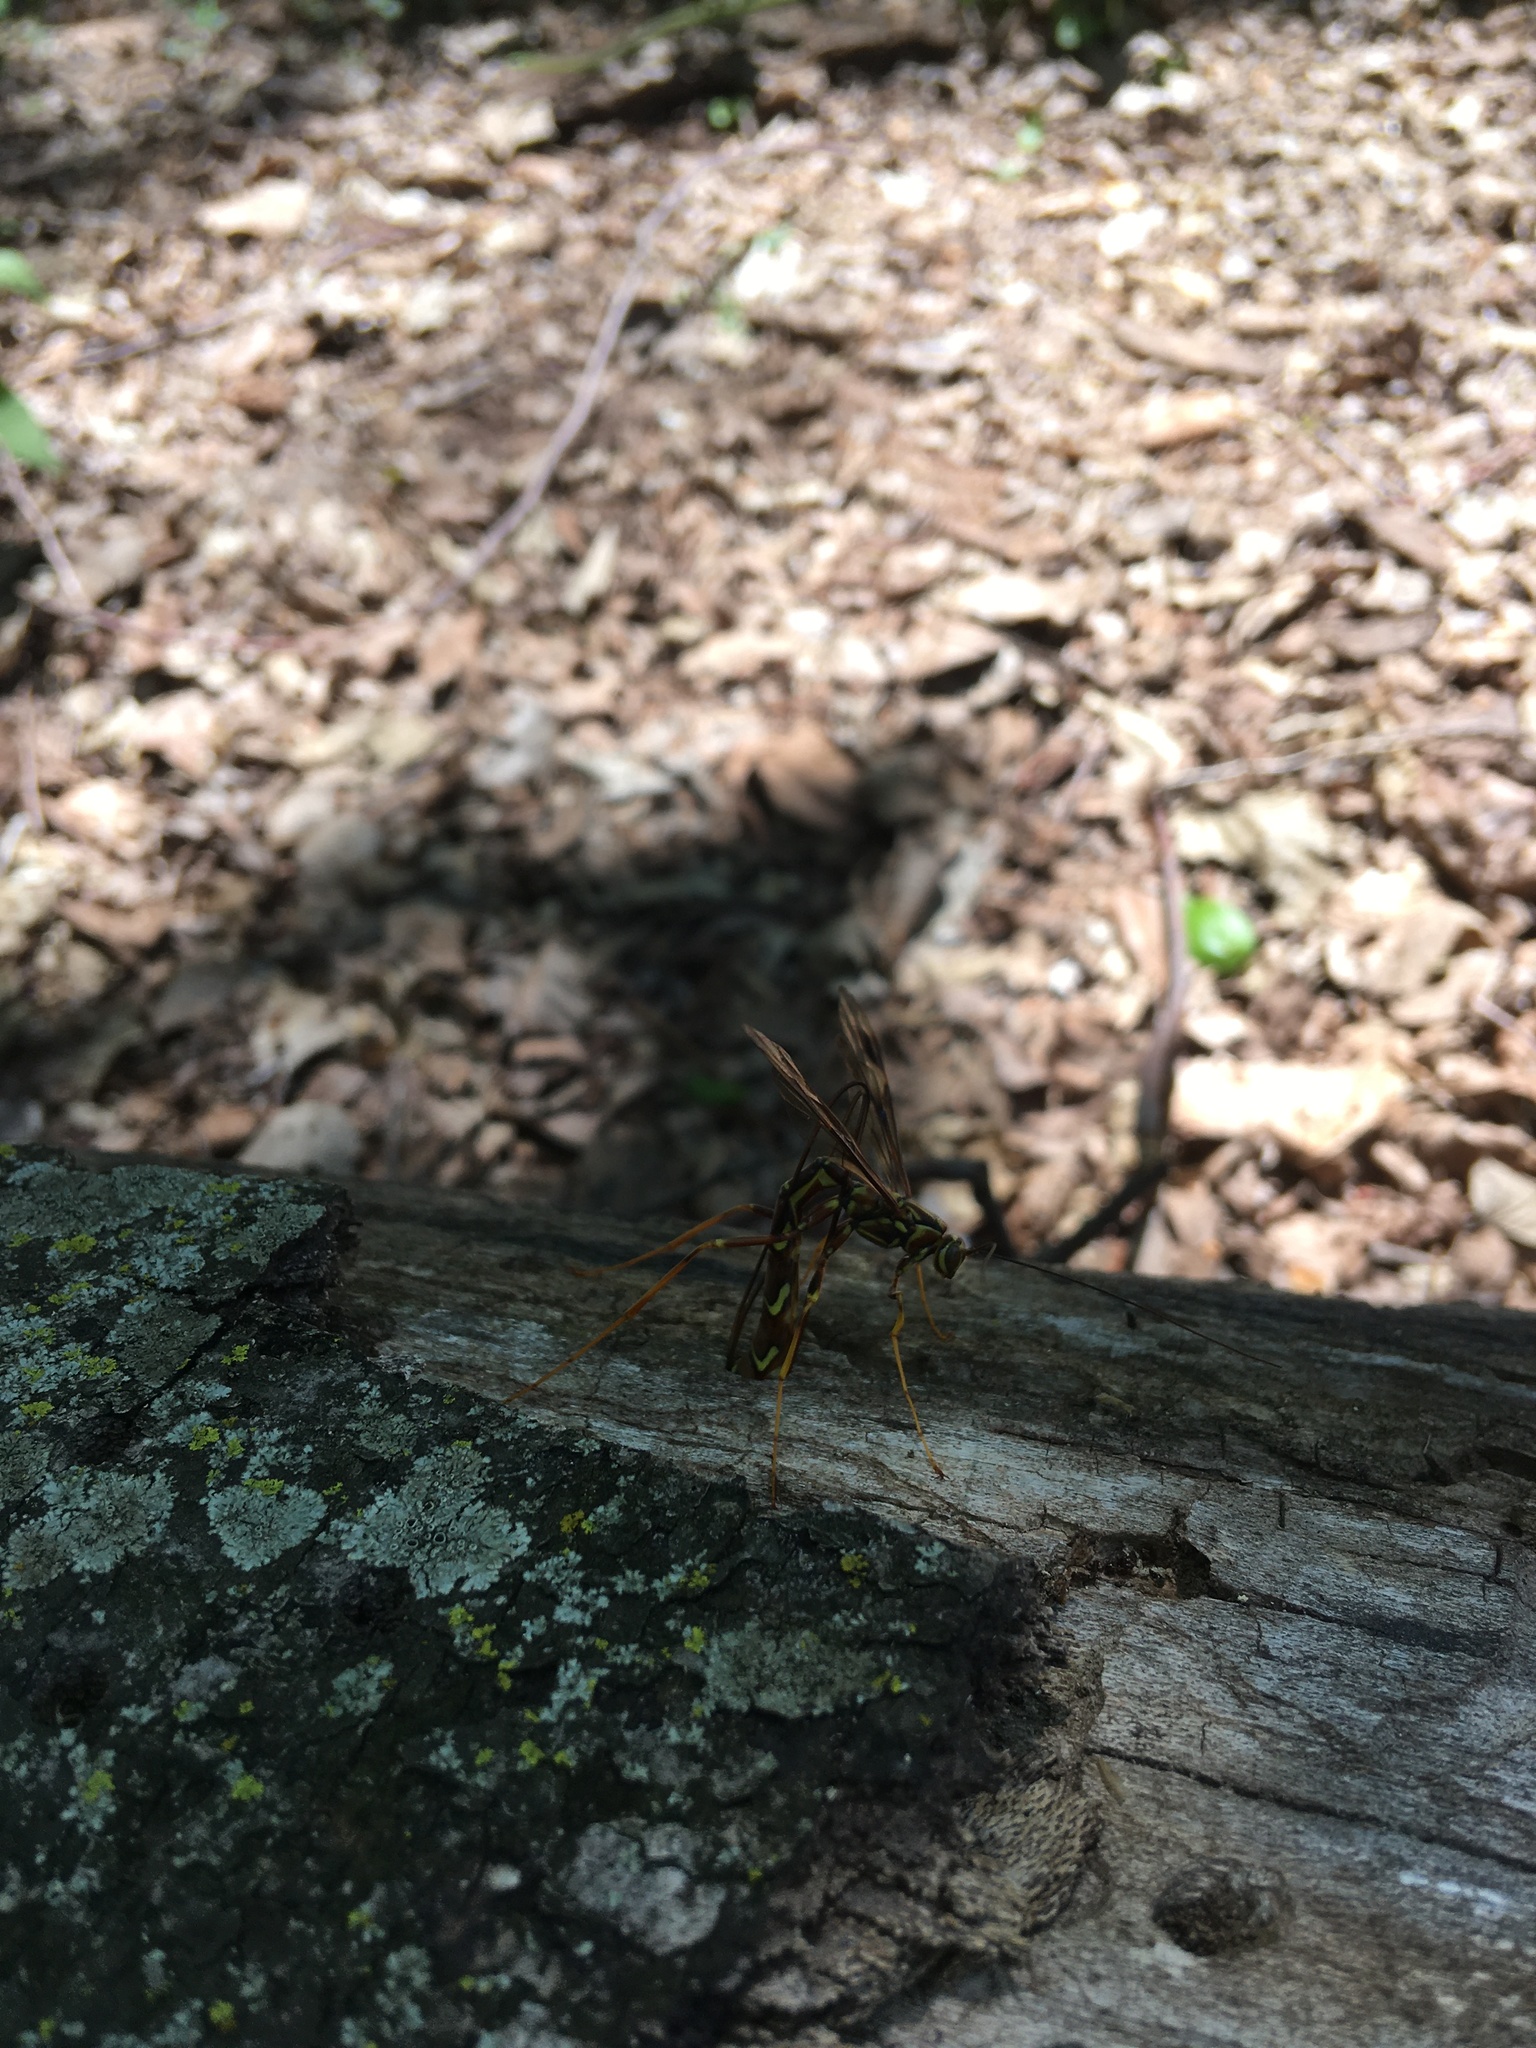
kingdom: Animalia
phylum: Arthropoda
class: Insecta
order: Hymenoptera
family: Ichneumonidae
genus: Megarhyssa
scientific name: Megarhyssa macrura
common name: Long-tailed giant ichneumonid wasp
